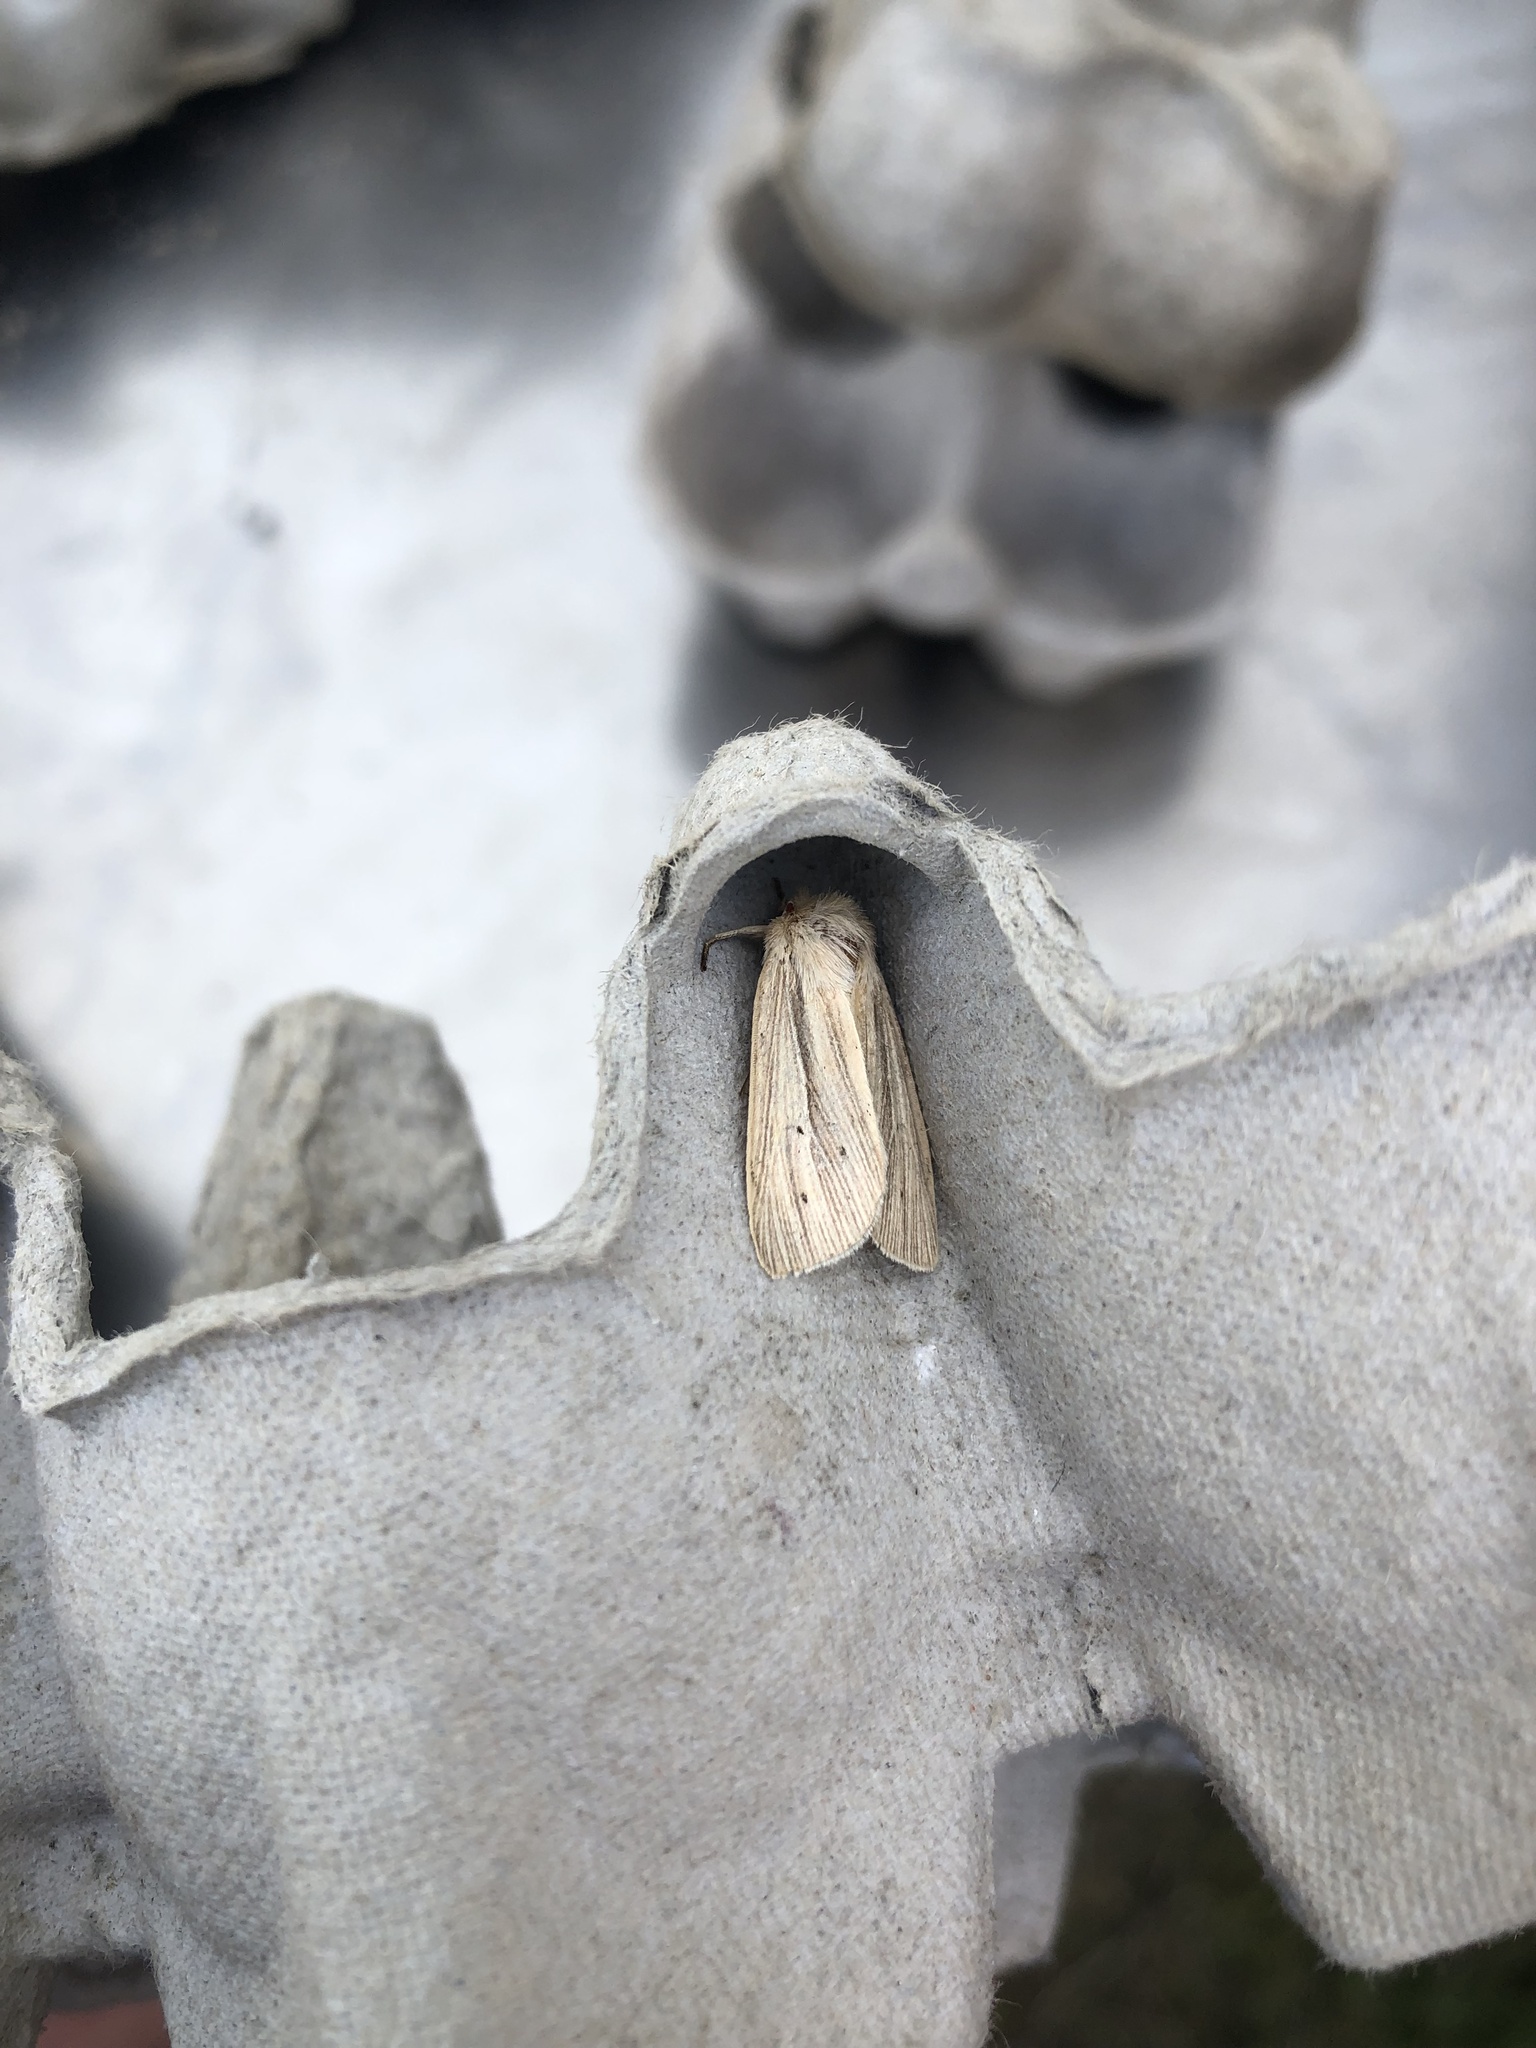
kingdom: Animalia
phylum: Arthropoda
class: Insecta
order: Lepidoptera
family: Noctuidae
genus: Mythimna
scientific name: Mythimna impura
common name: Smoky wainscot
